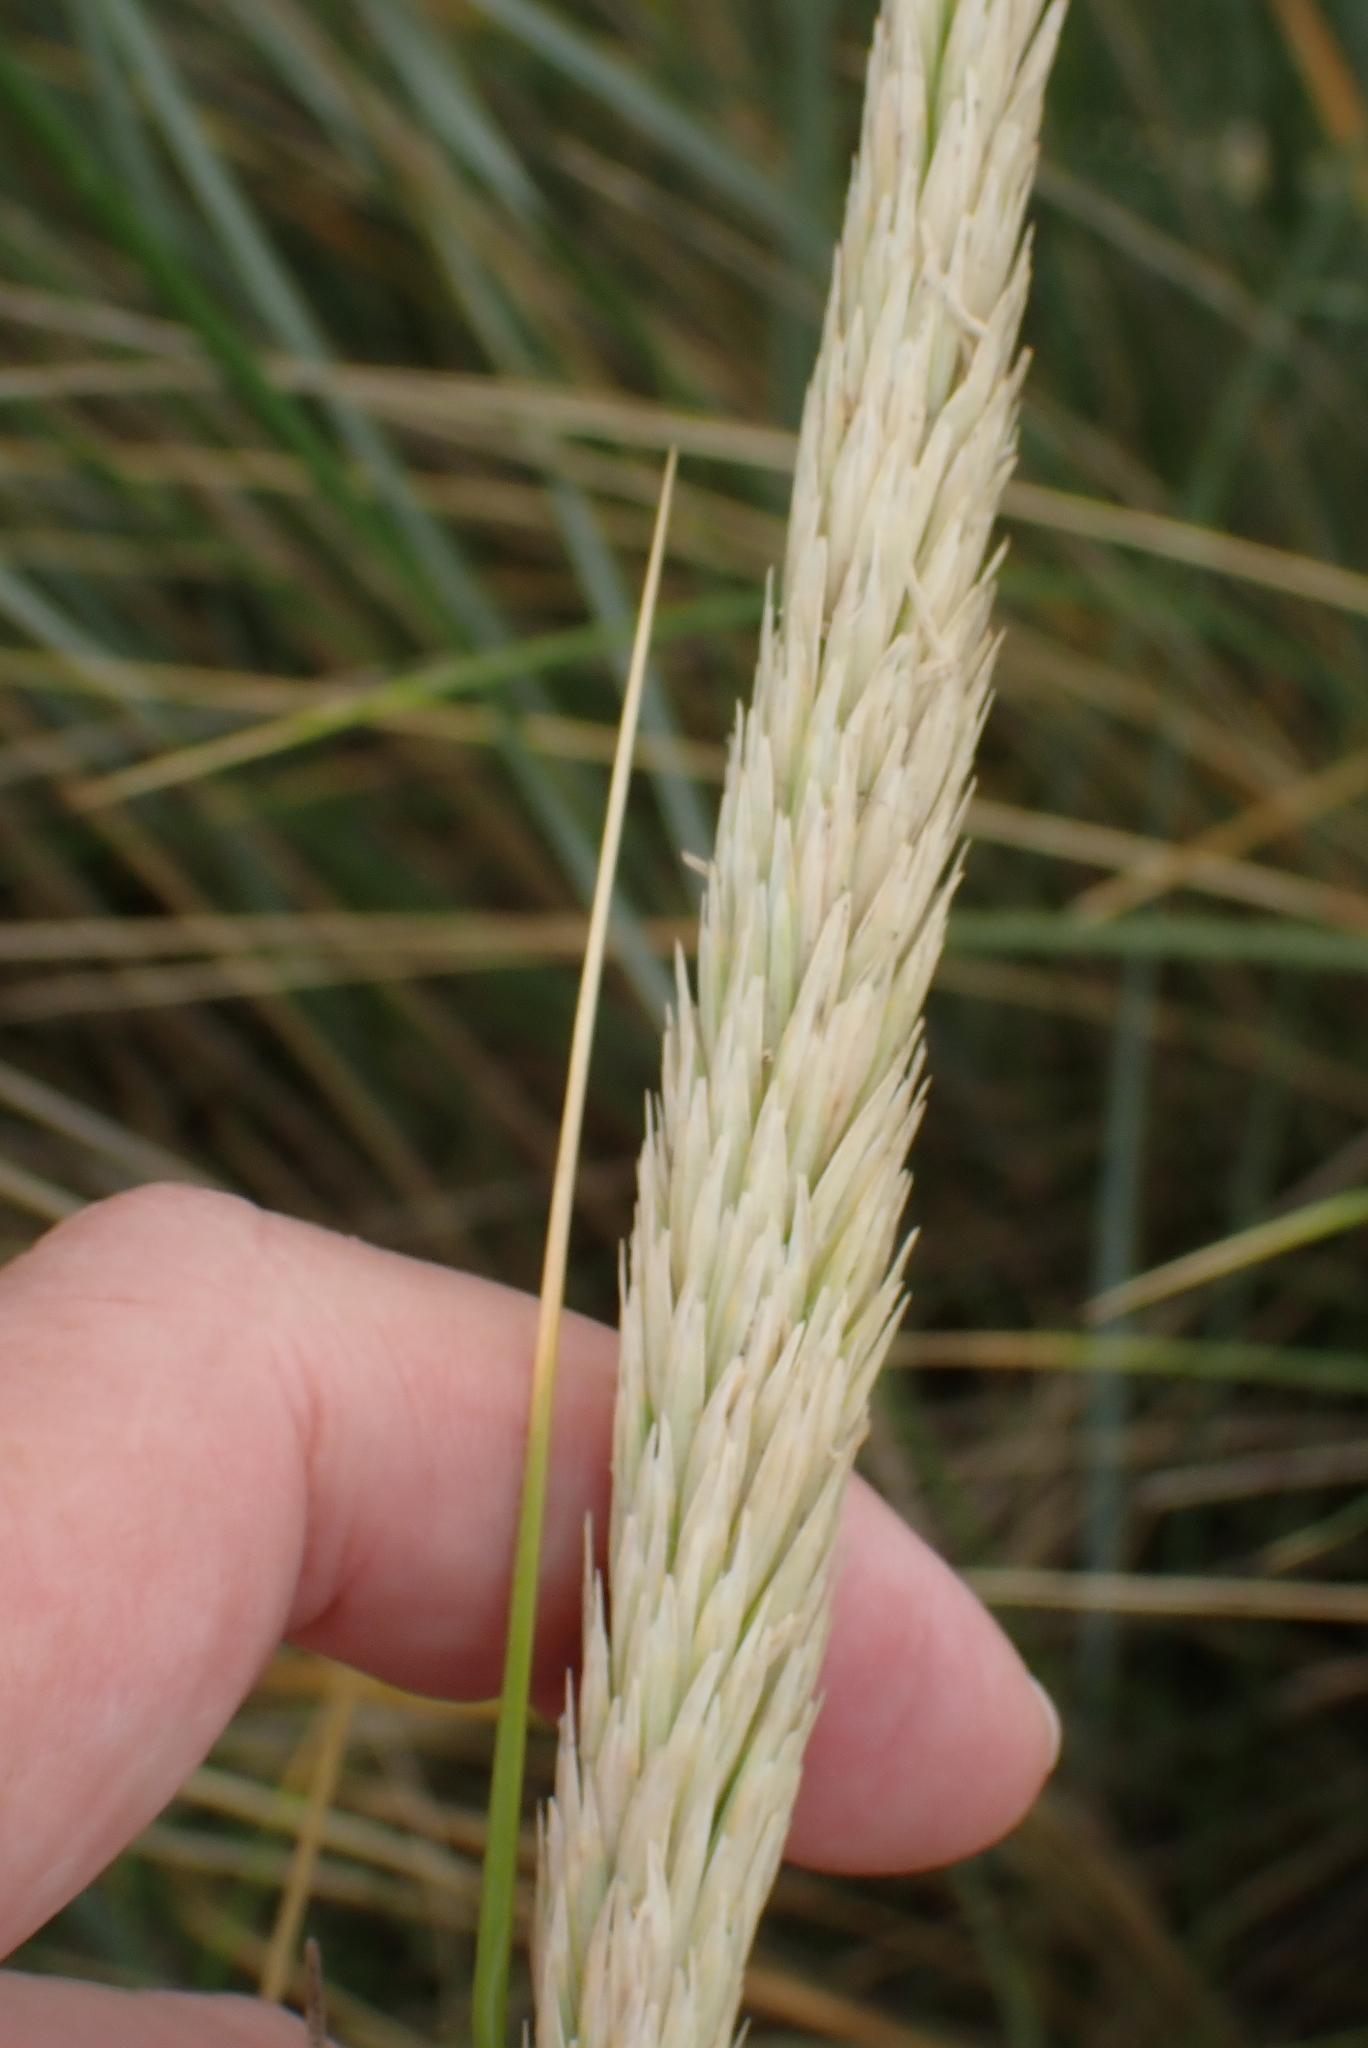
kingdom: Plantae
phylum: Tracheophyta
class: Liliopsida
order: Poales
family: Poaceae
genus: Calamagrostis
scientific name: Calamagrostis arenaria
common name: European beachgrass
